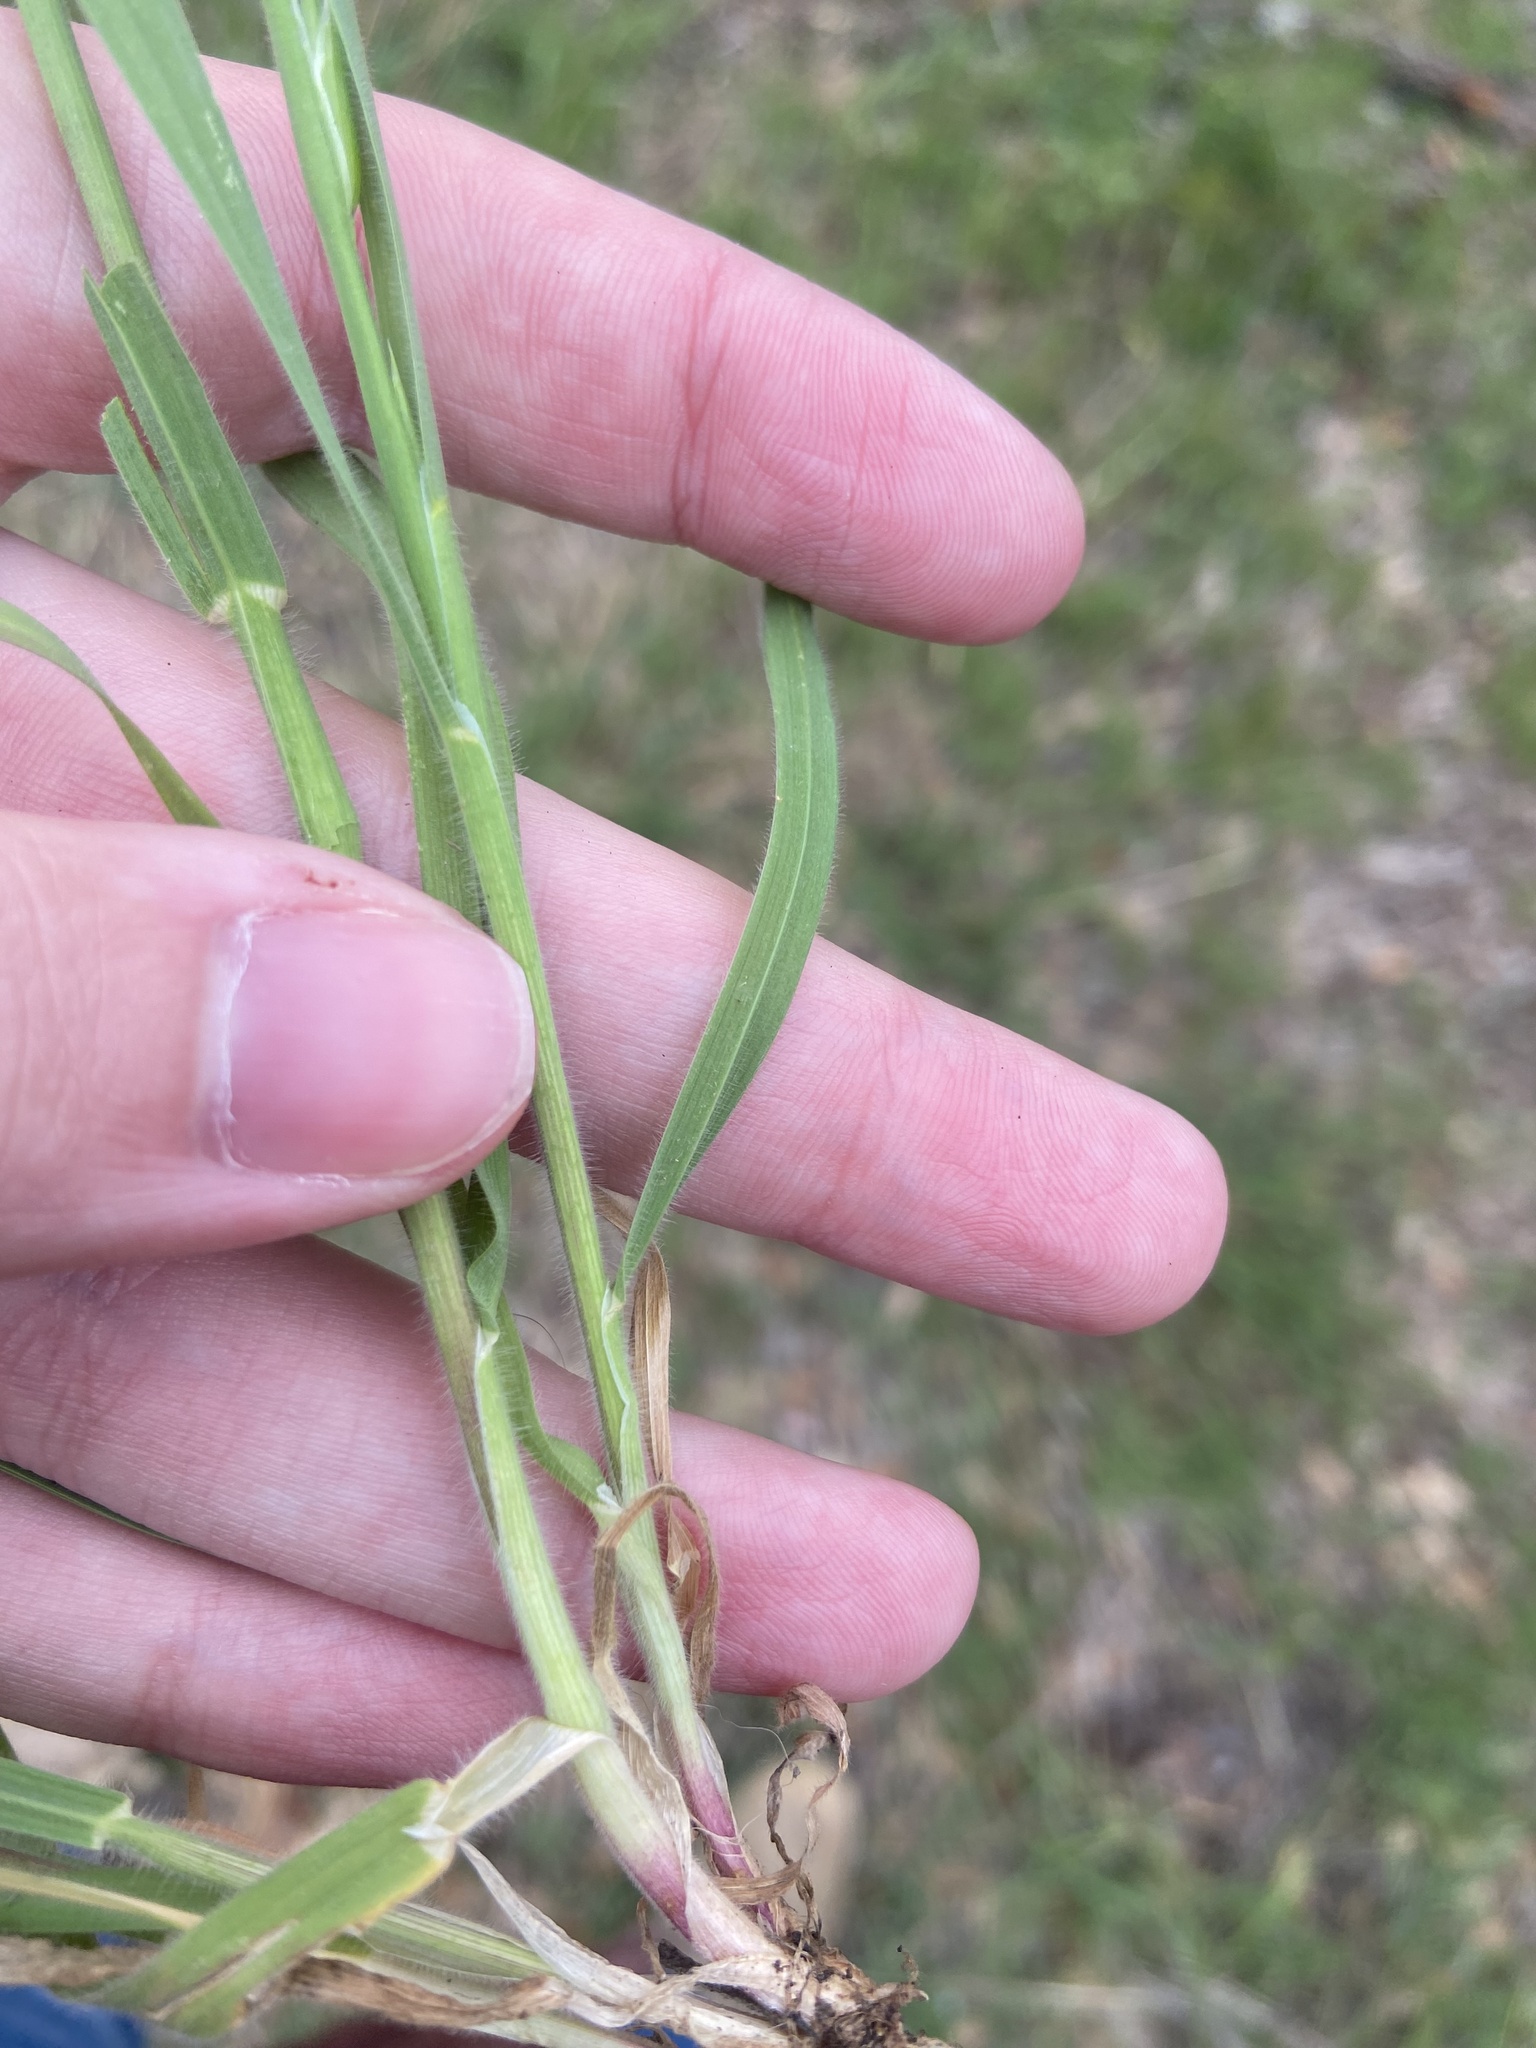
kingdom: Plantae
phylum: Tracheophyta
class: Liliopsida
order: Poales
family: Poaceae
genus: Bromus
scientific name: Bromus catharticus
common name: Rescuegrass
